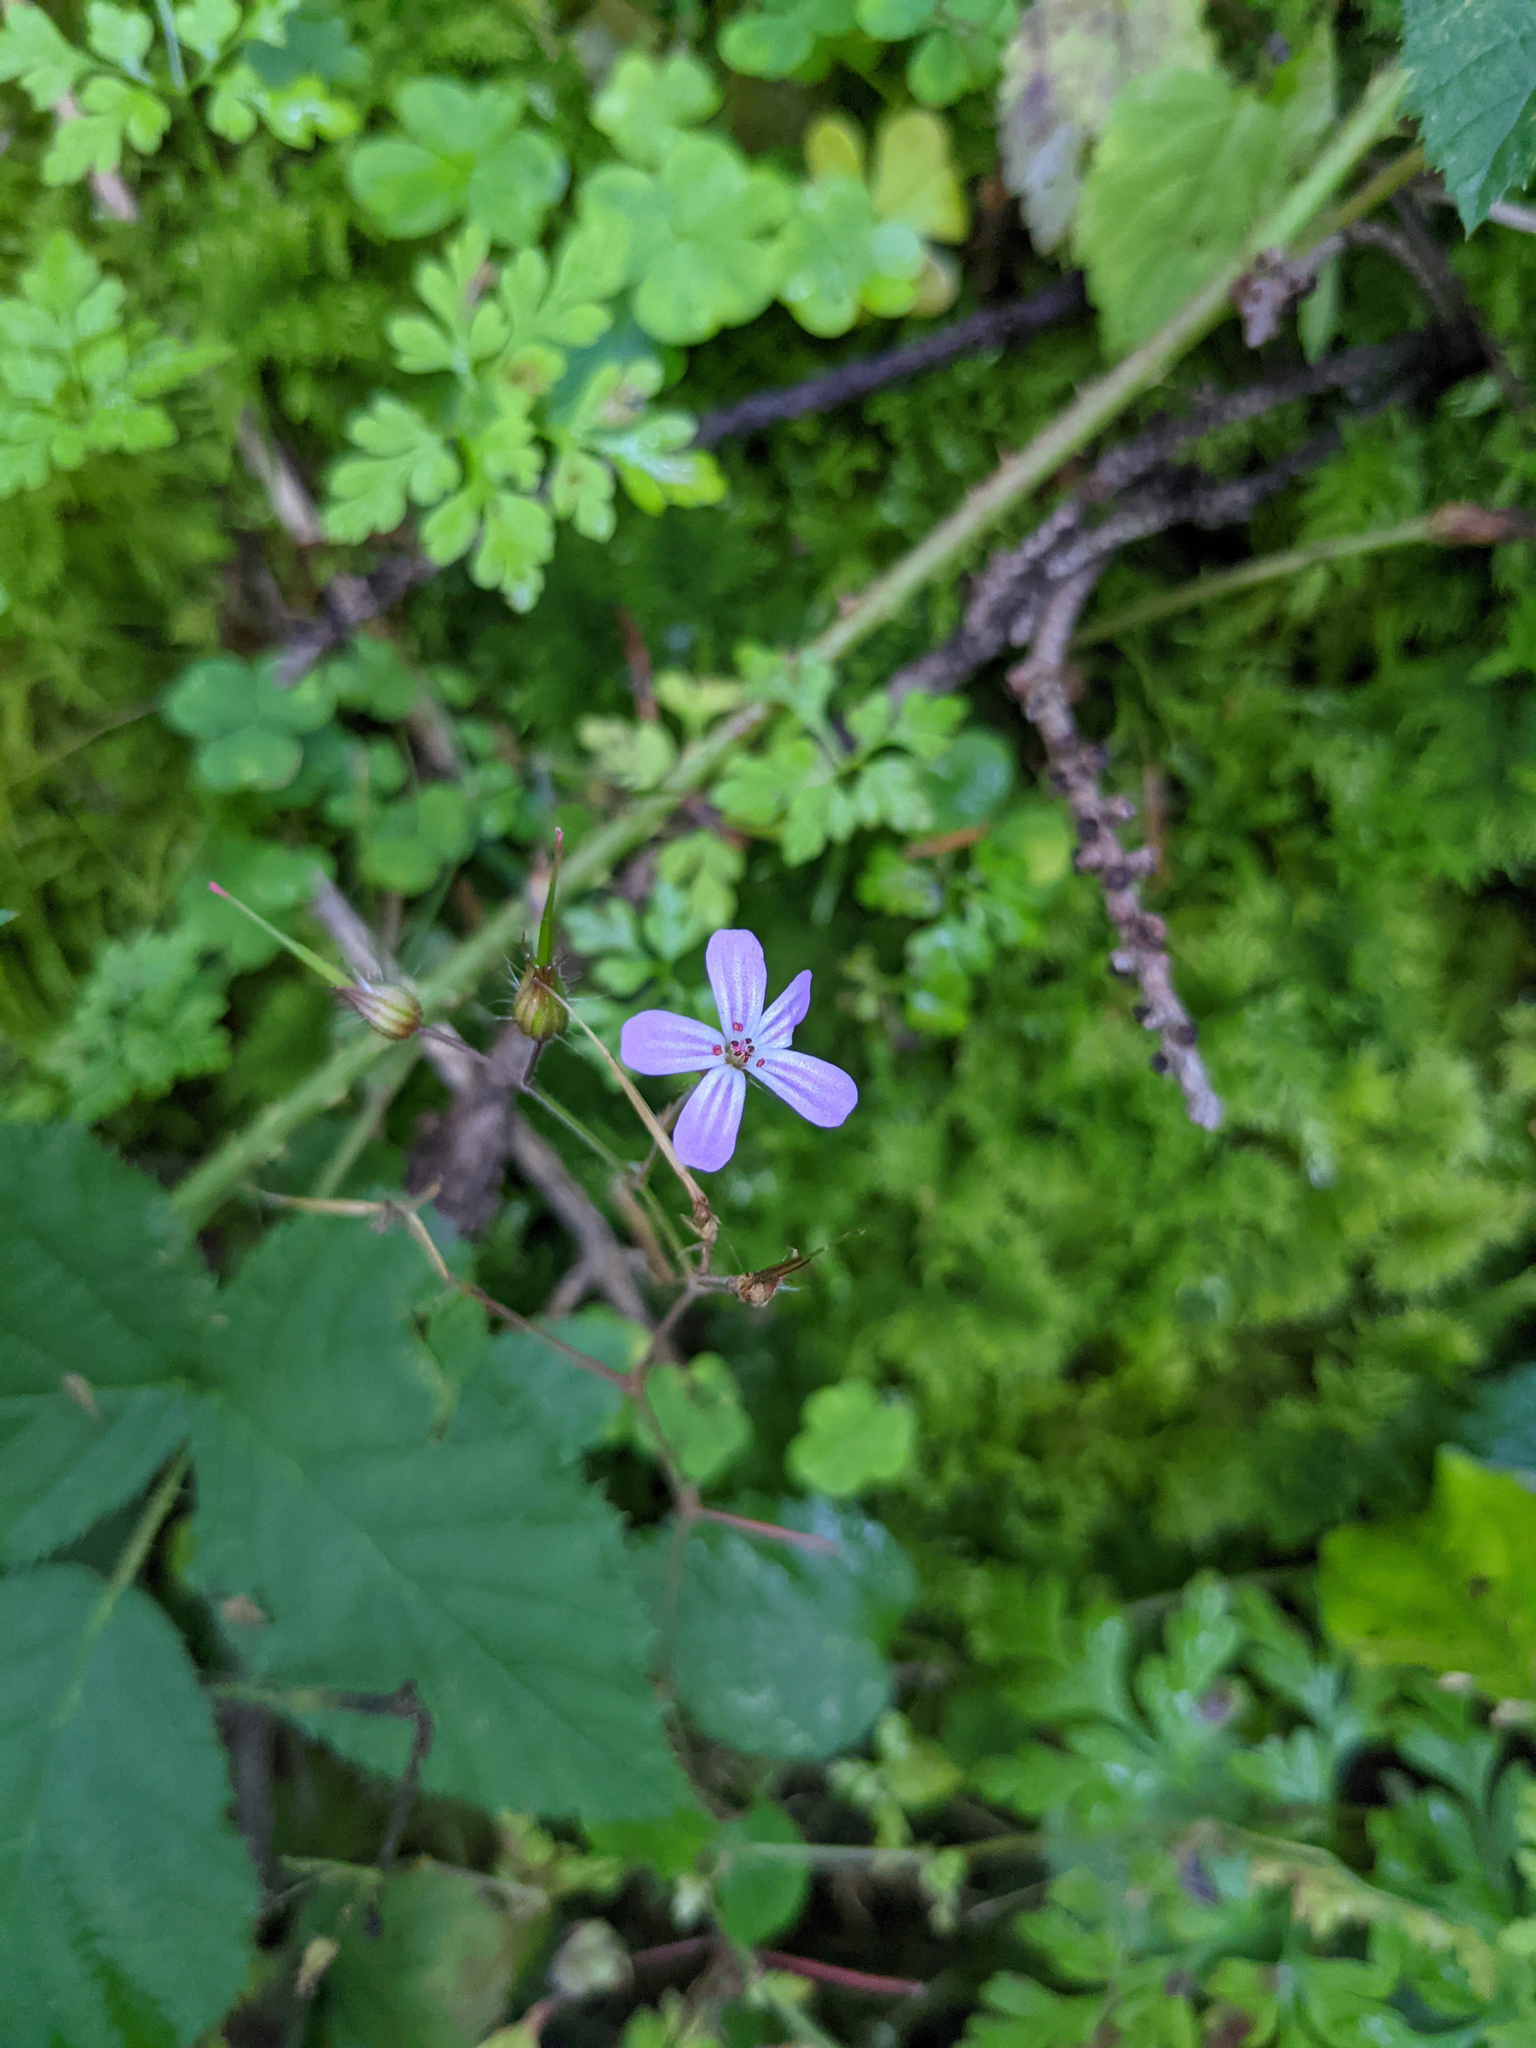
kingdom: Plantae
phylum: Tracheophyta
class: Magnoliopsida
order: Geraniales
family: Geraniaceae
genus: Geranium
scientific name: Geranium robertianum
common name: Herb-robert
